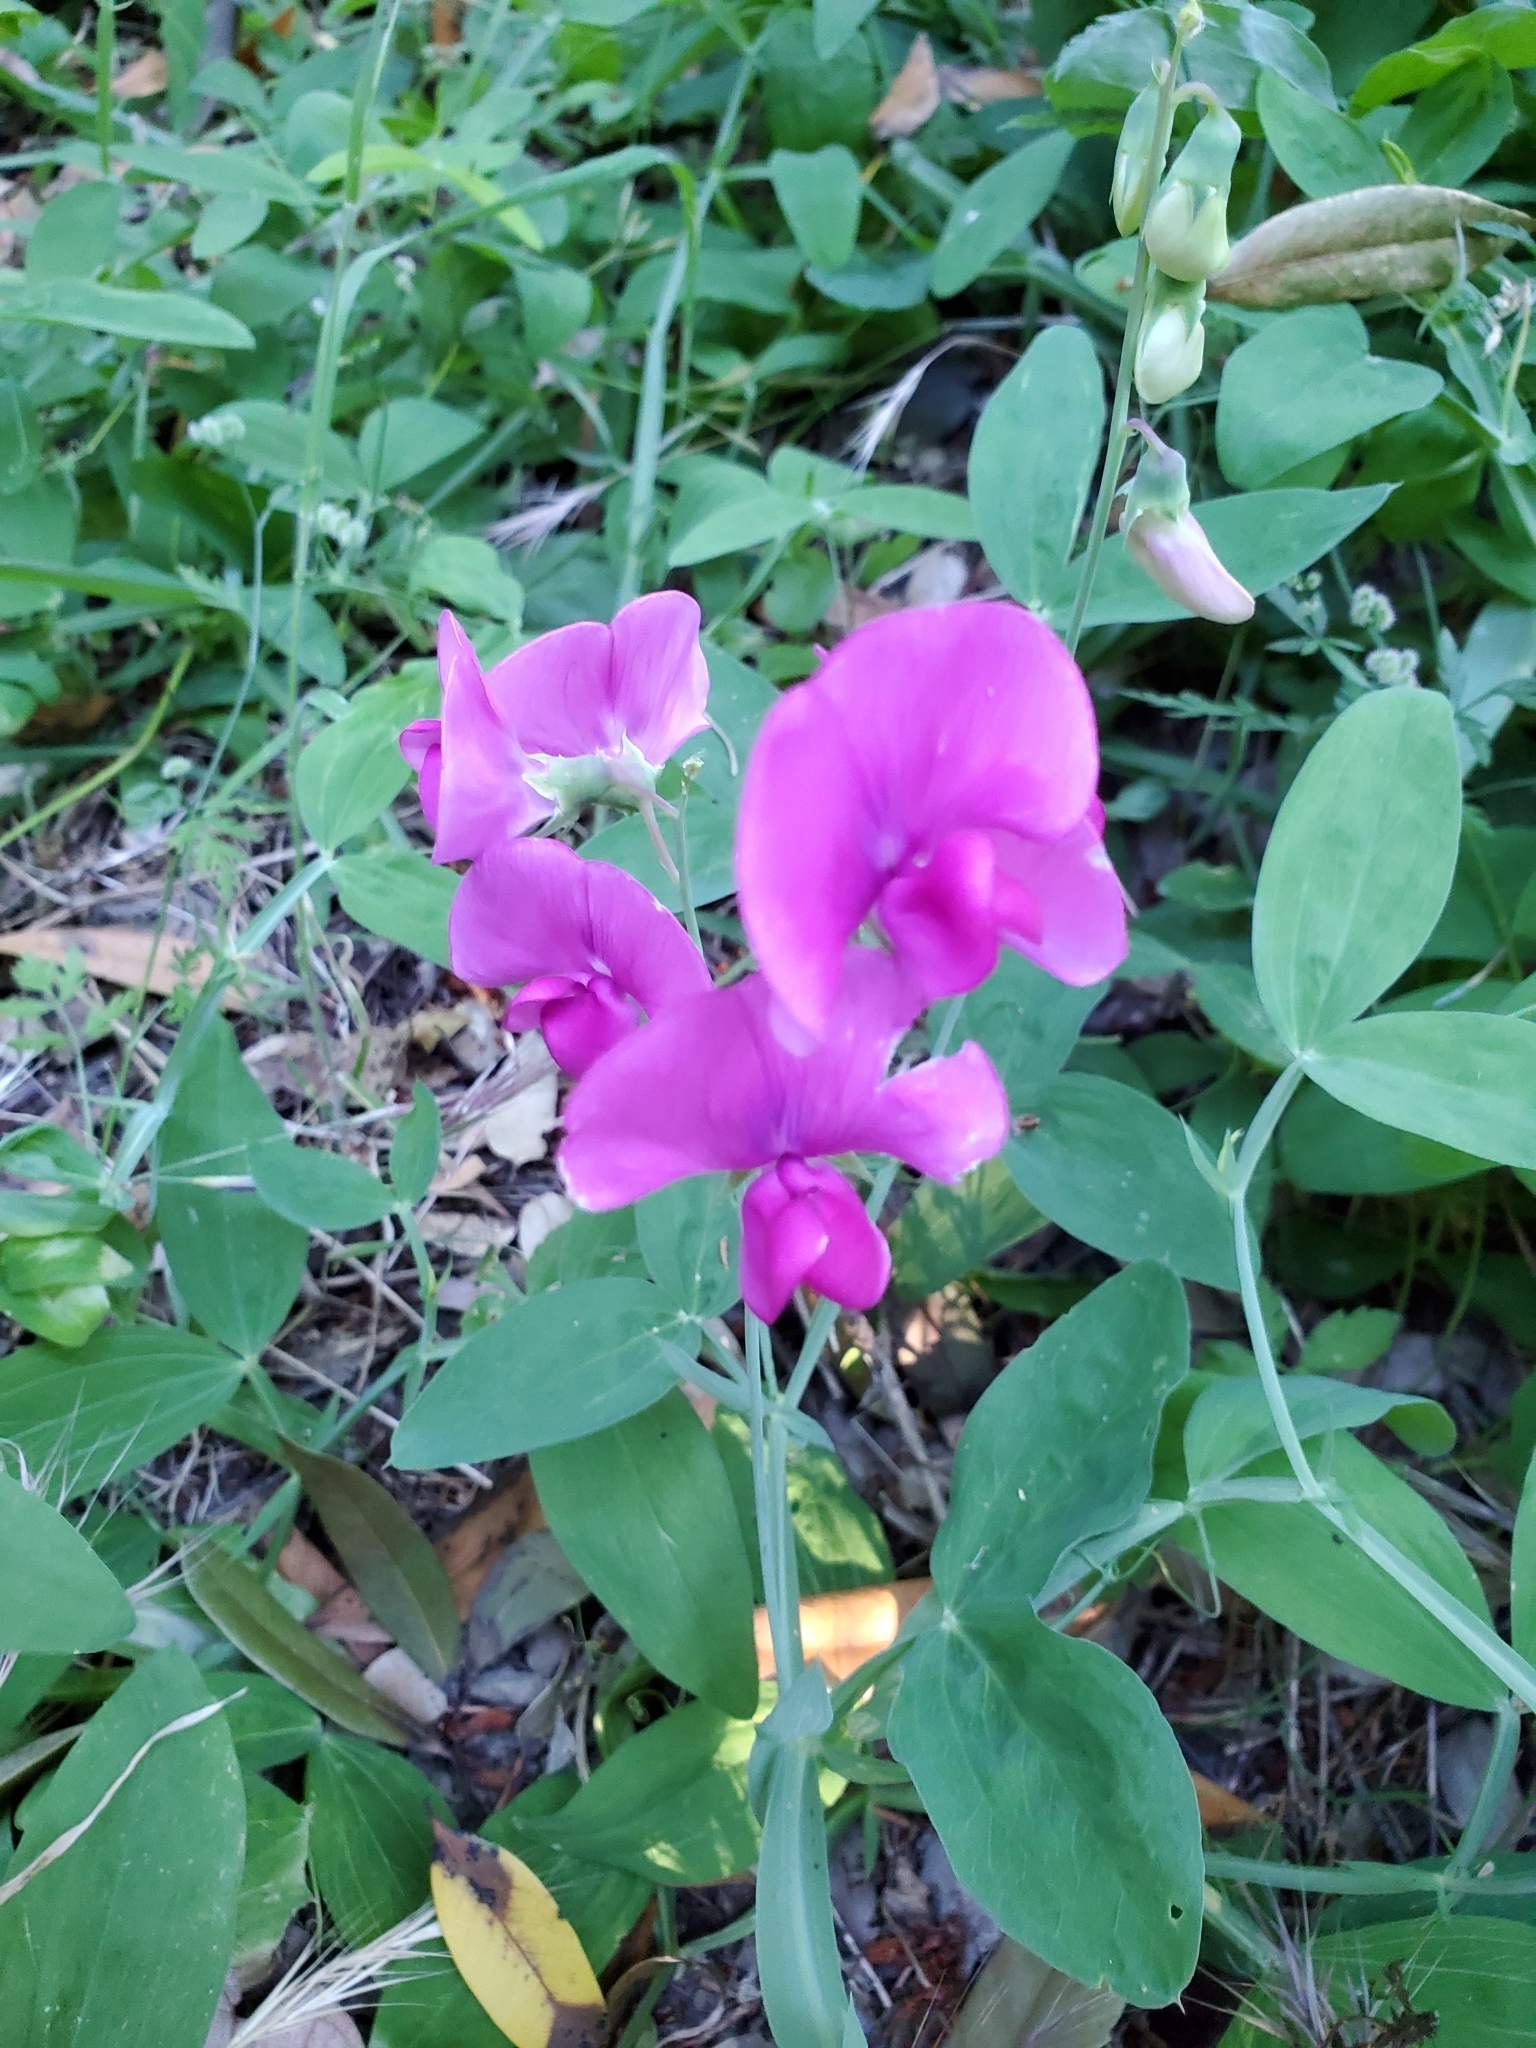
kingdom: Plantae
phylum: Tracheophyta
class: Magnoliopsida
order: Fabales
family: Fabaceae
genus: Lathyrus
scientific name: Lathyrus latifolius
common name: Perennial pea
